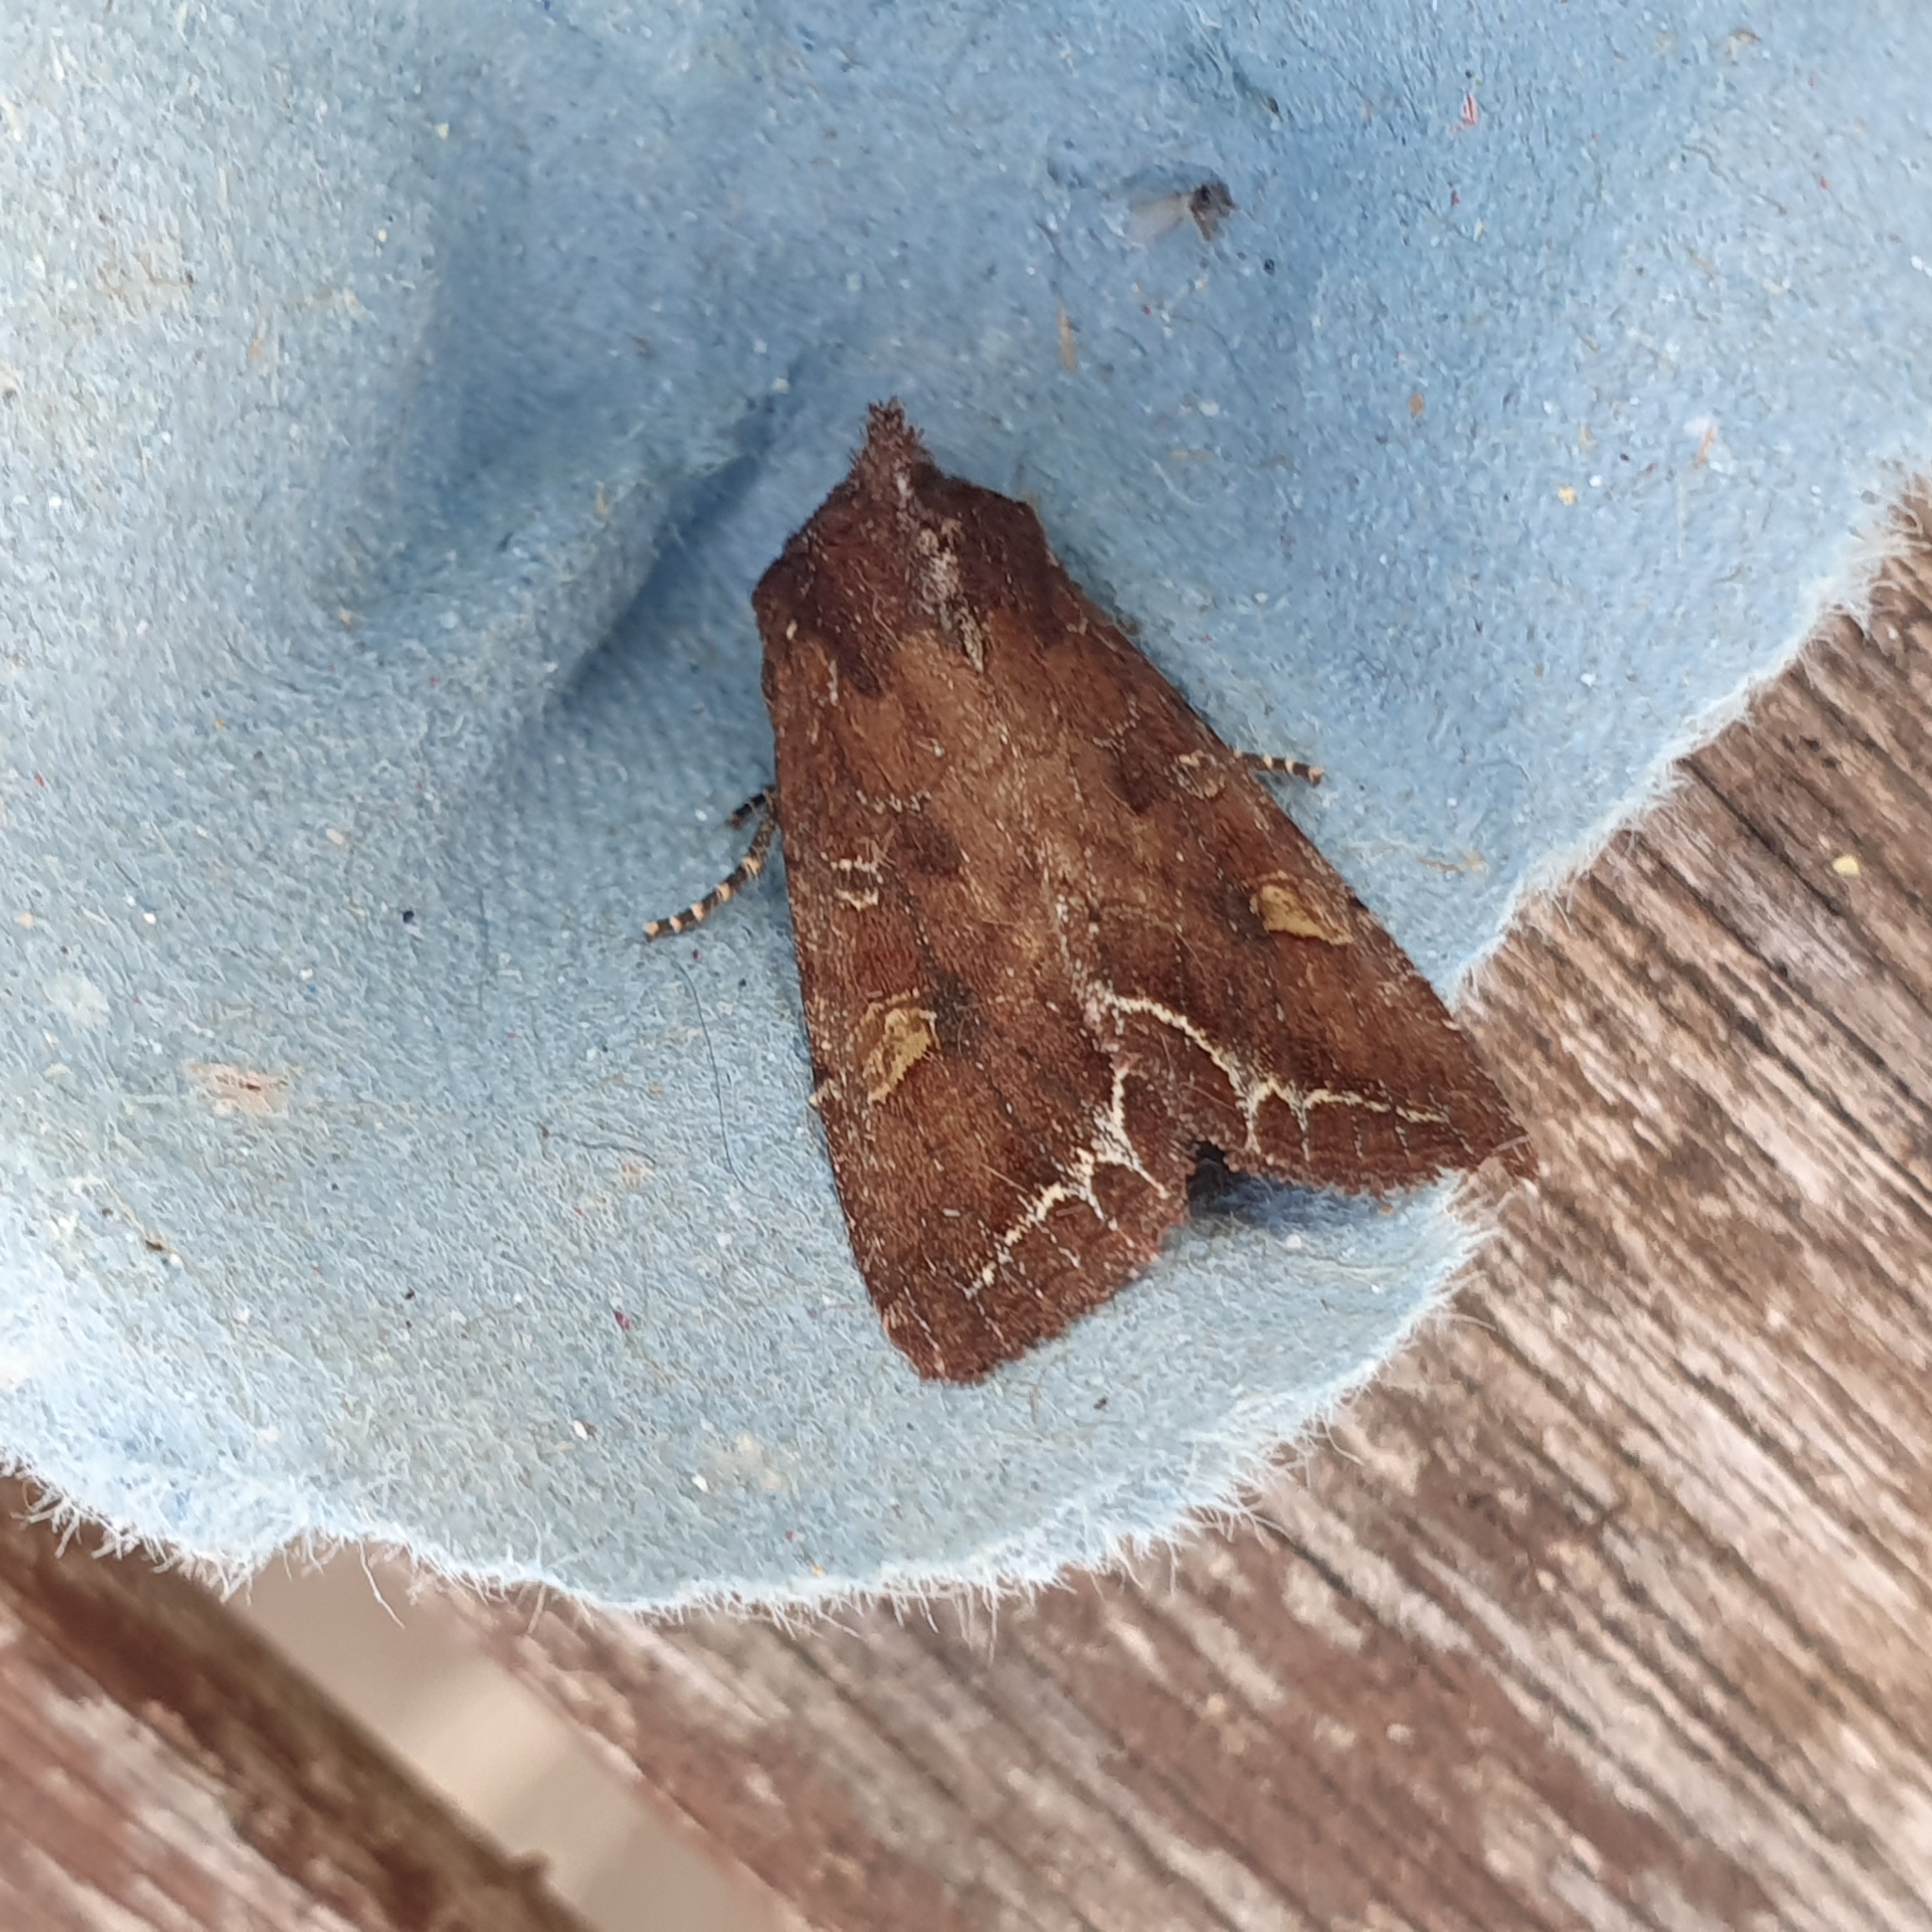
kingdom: Animalia
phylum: Arthropoda
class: Insecta
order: Lepidoptera
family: Noctuidae
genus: Lacanobia
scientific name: Lacanobia oleracea
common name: Bright-line brown-eye
